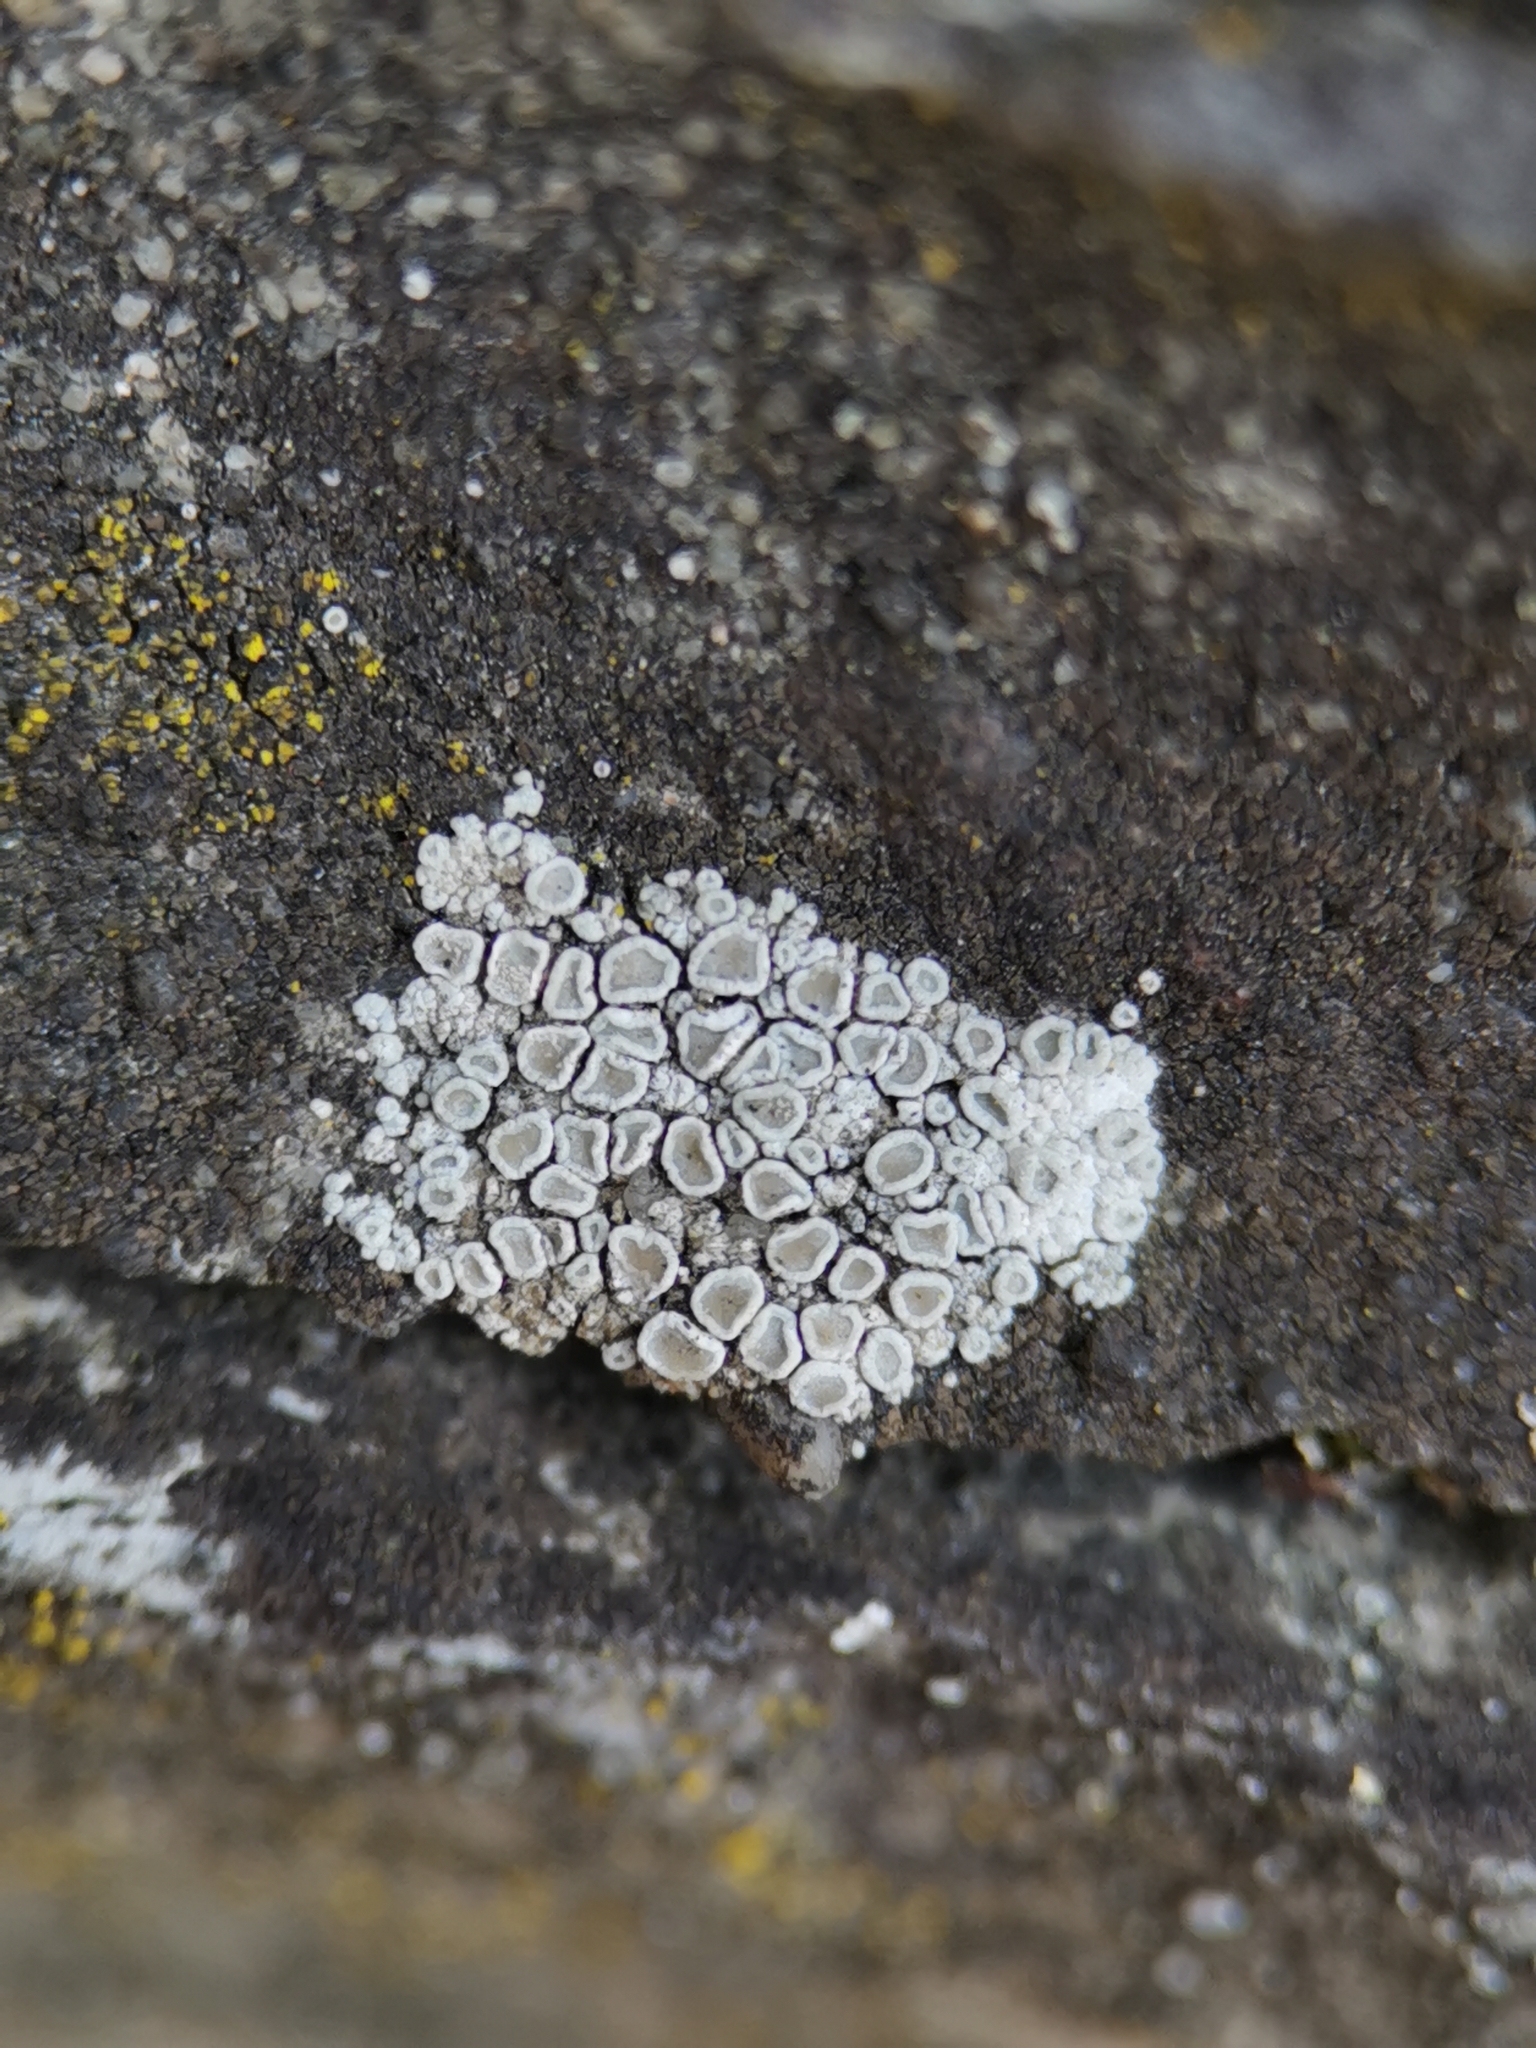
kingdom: Fungi
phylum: Ascomycota
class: Lecanoromycetes
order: Lecanorales
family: Lecanoraceae
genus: Polyozosia
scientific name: Polyozosia albescens
